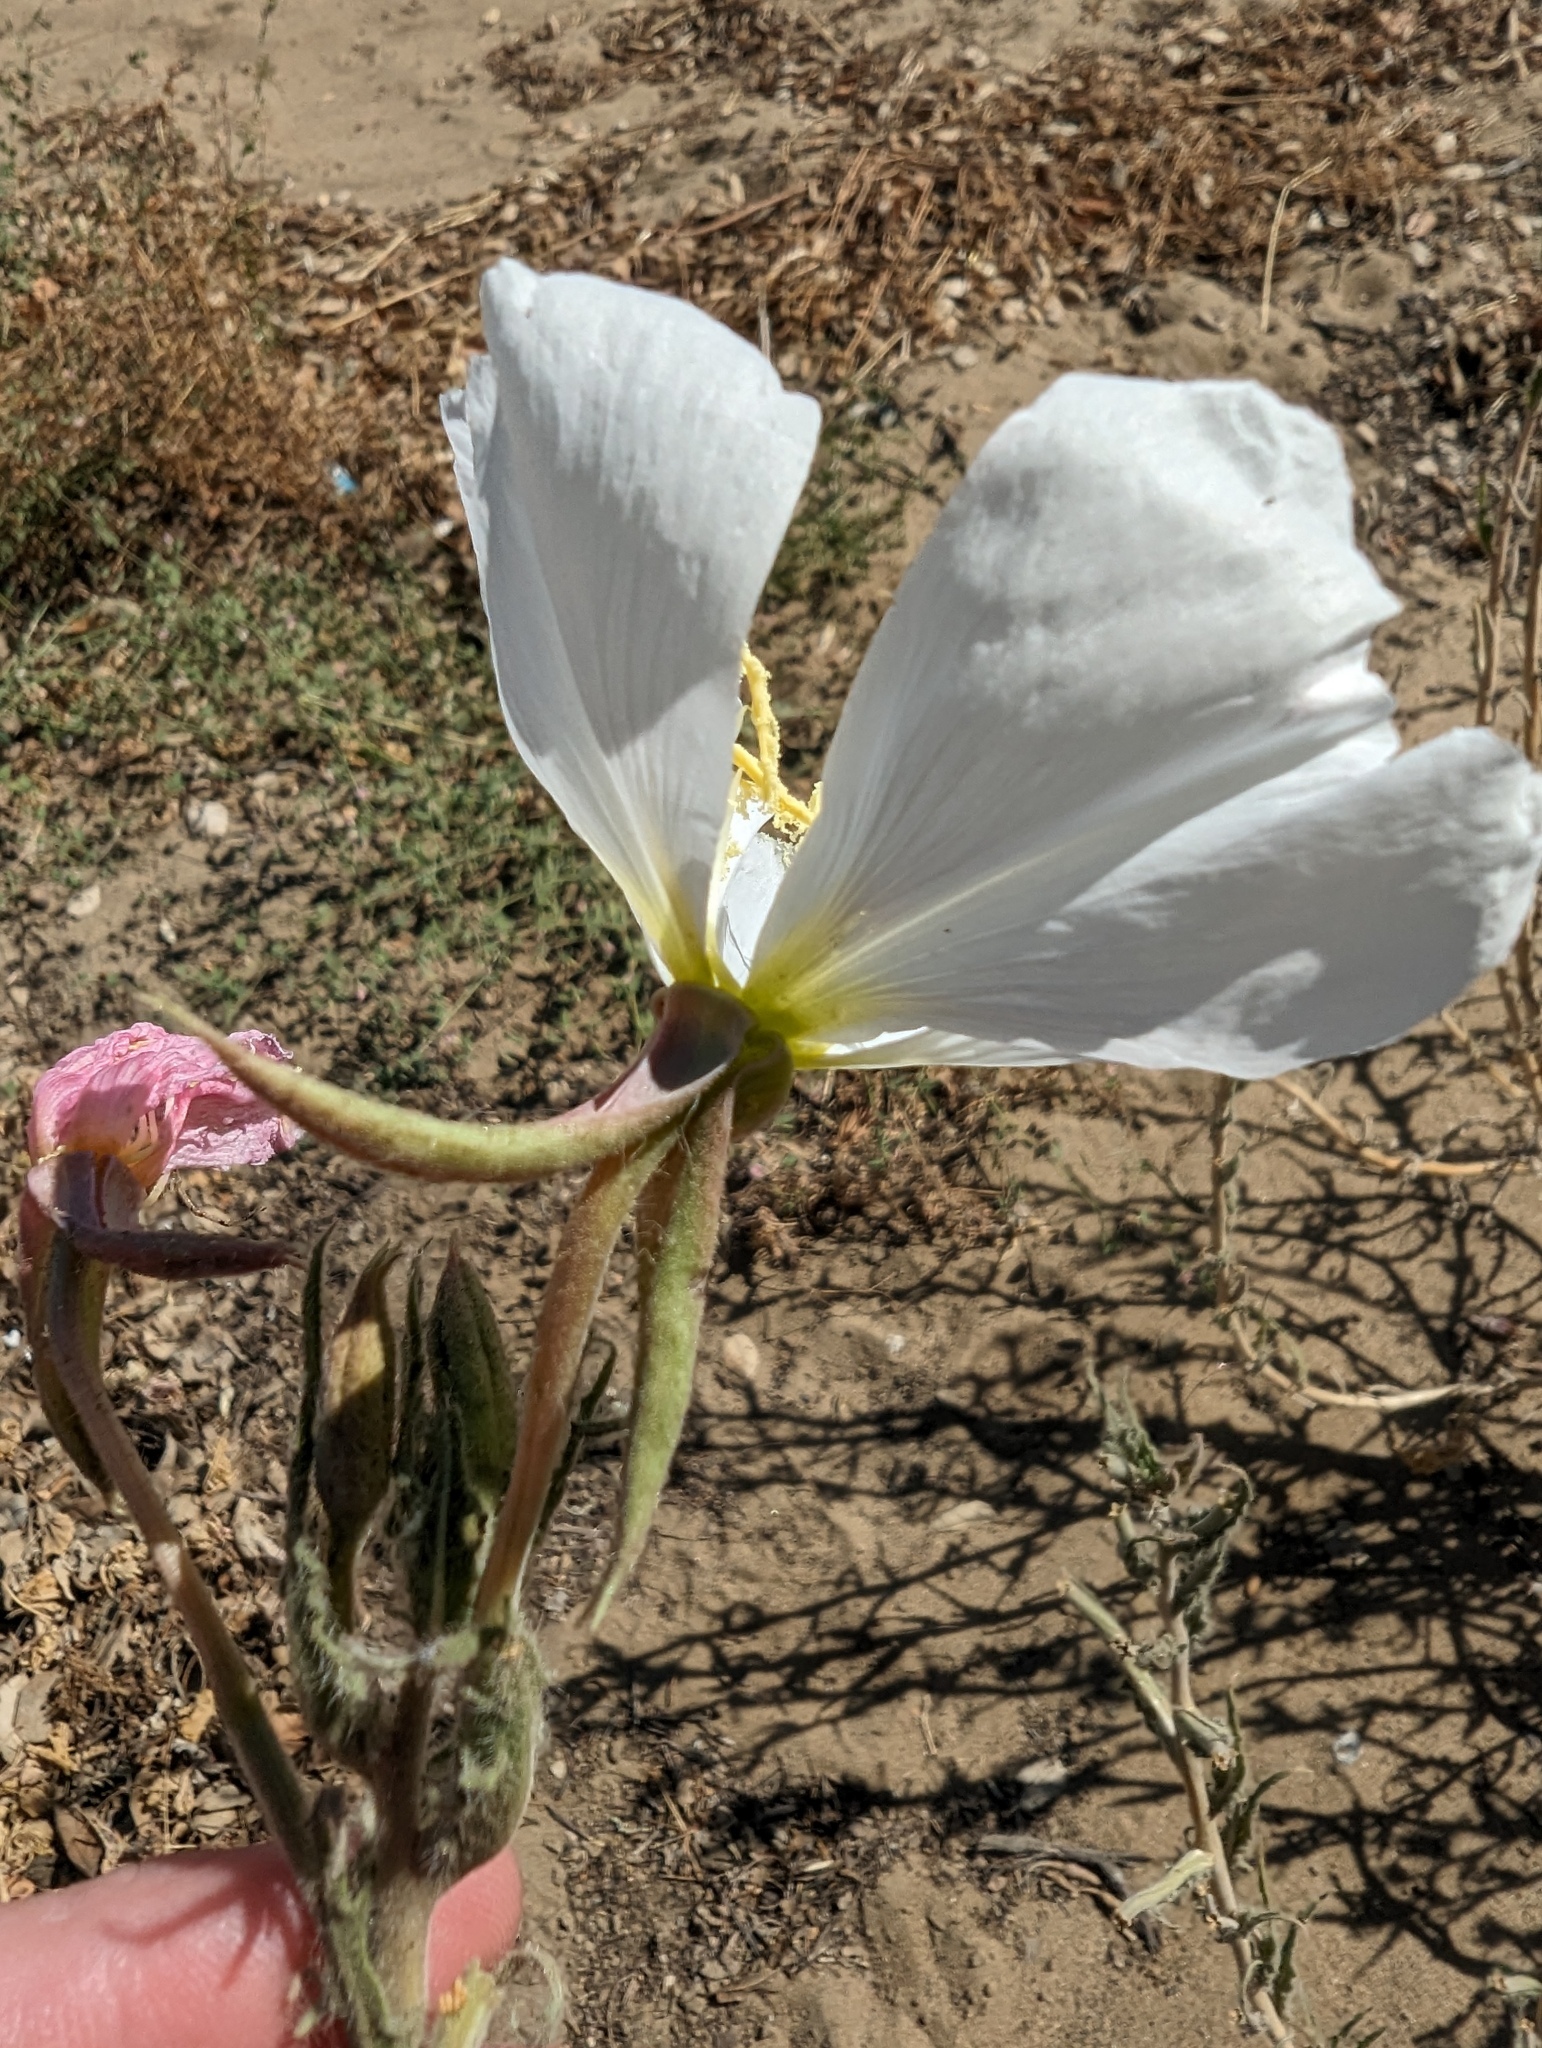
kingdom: Plantae
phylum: Tracheophyta
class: Magnoliopsida
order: Myrtales
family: Onagraceae
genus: Oenothera
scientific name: Oenothera deltoides
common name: Basket evening-primrose
